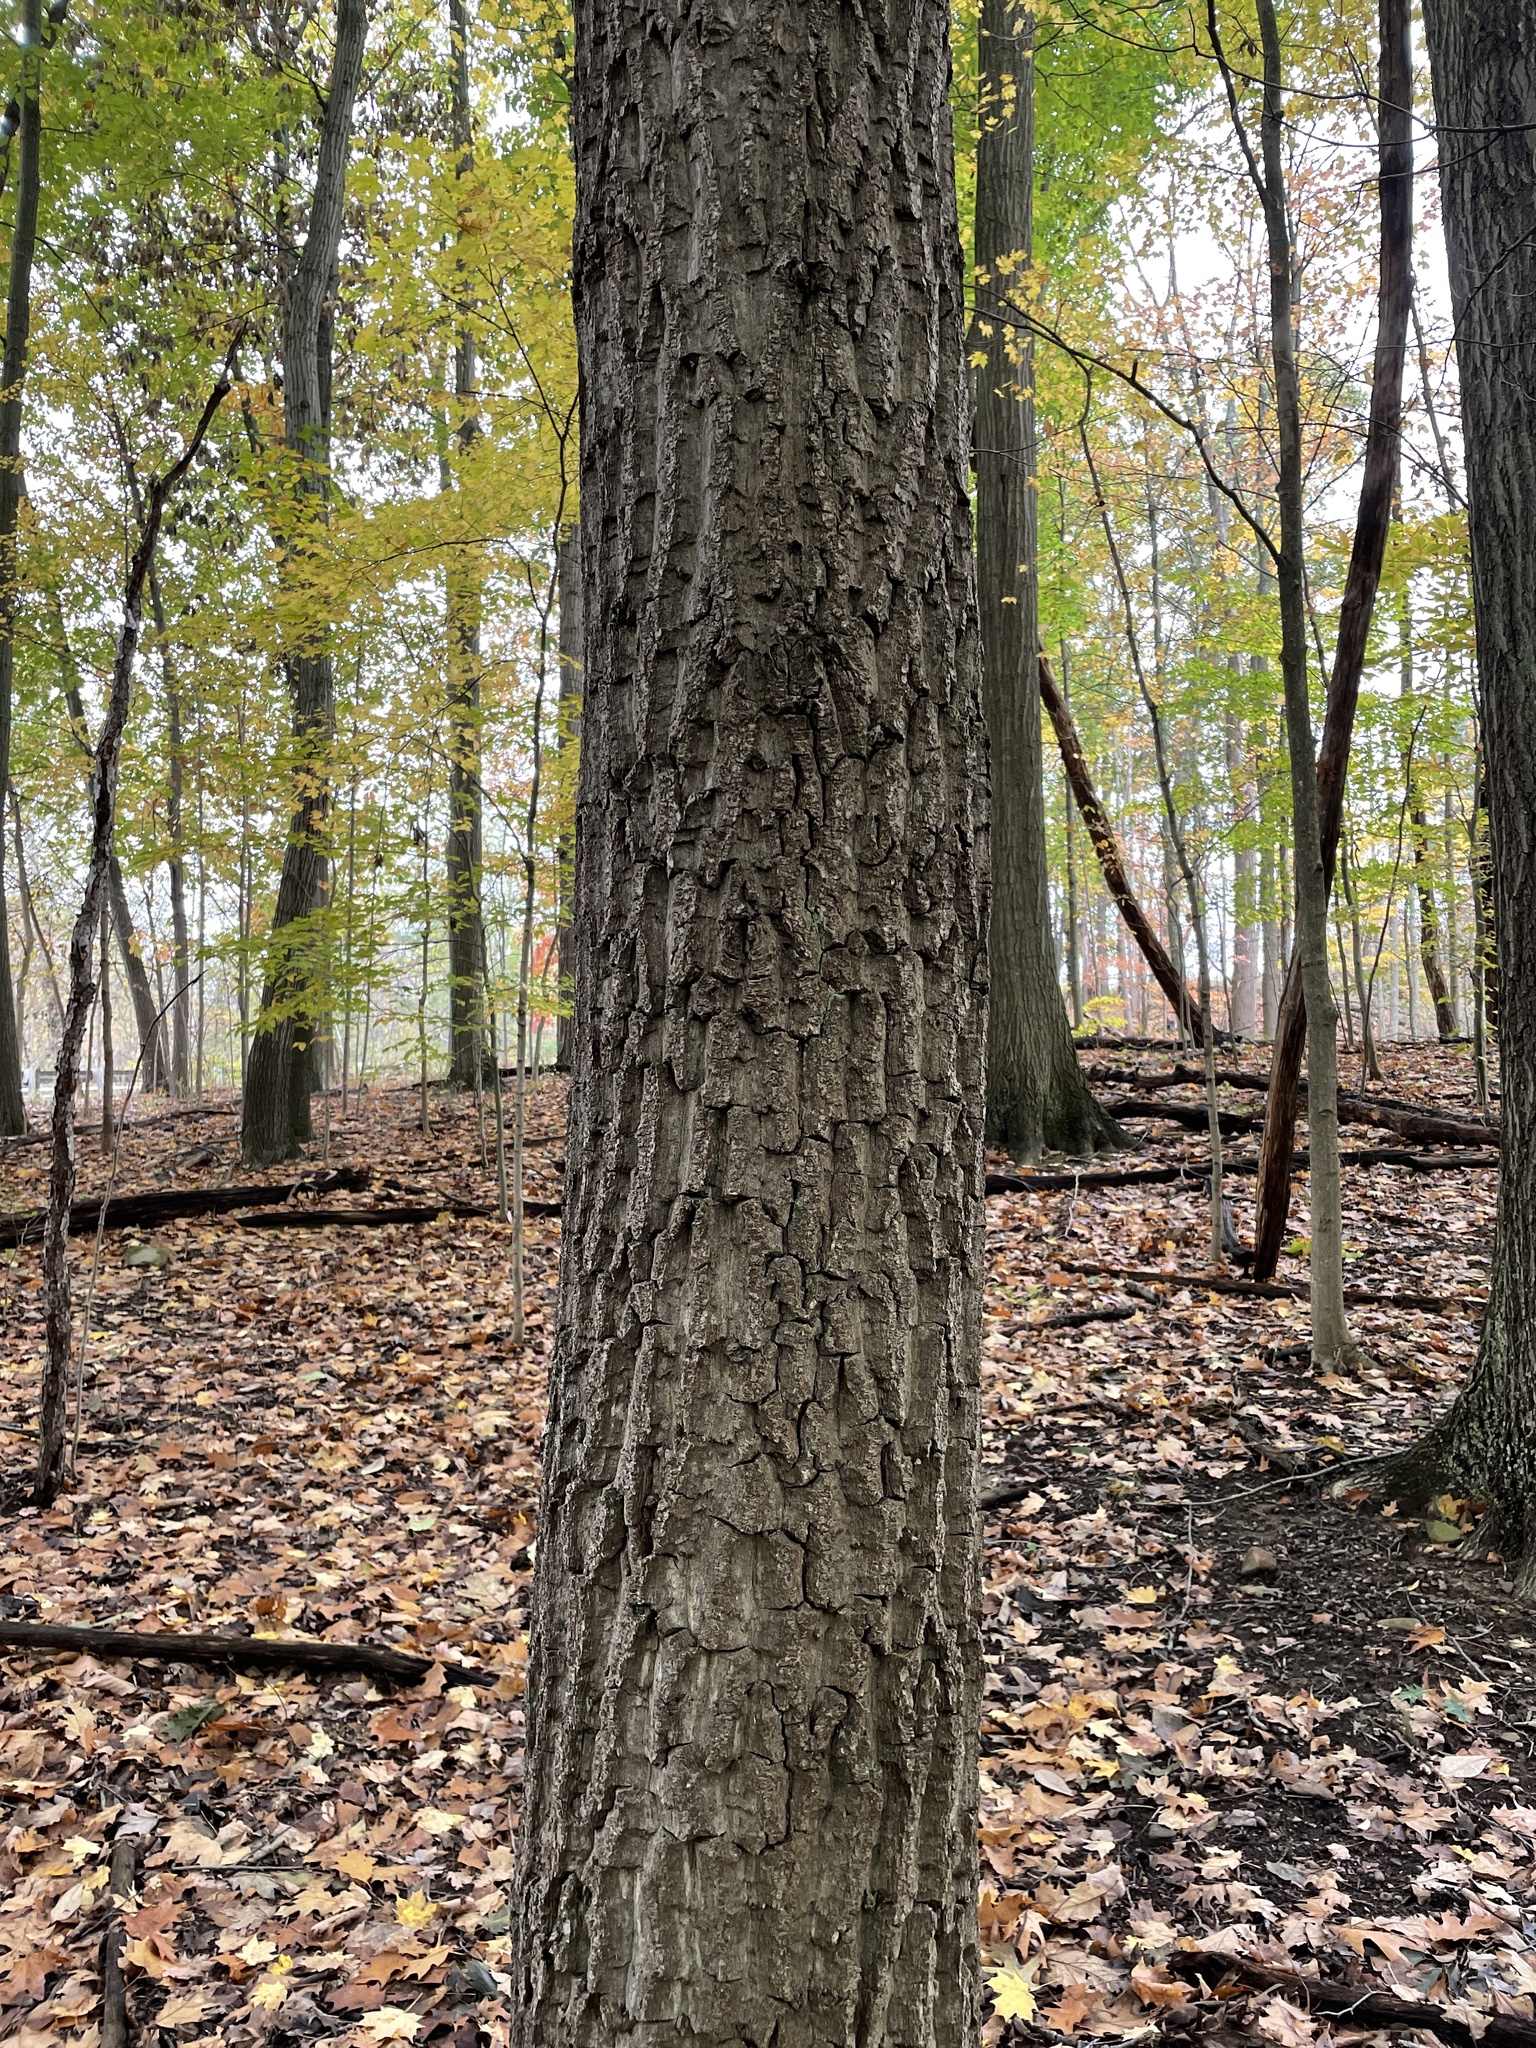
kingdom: Plantae
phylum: Tracheophyta
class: Magnoliopsida
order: Fagales
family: Fagaceae
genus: Quercus
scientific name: Quercus montana
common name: Chestnut oak
